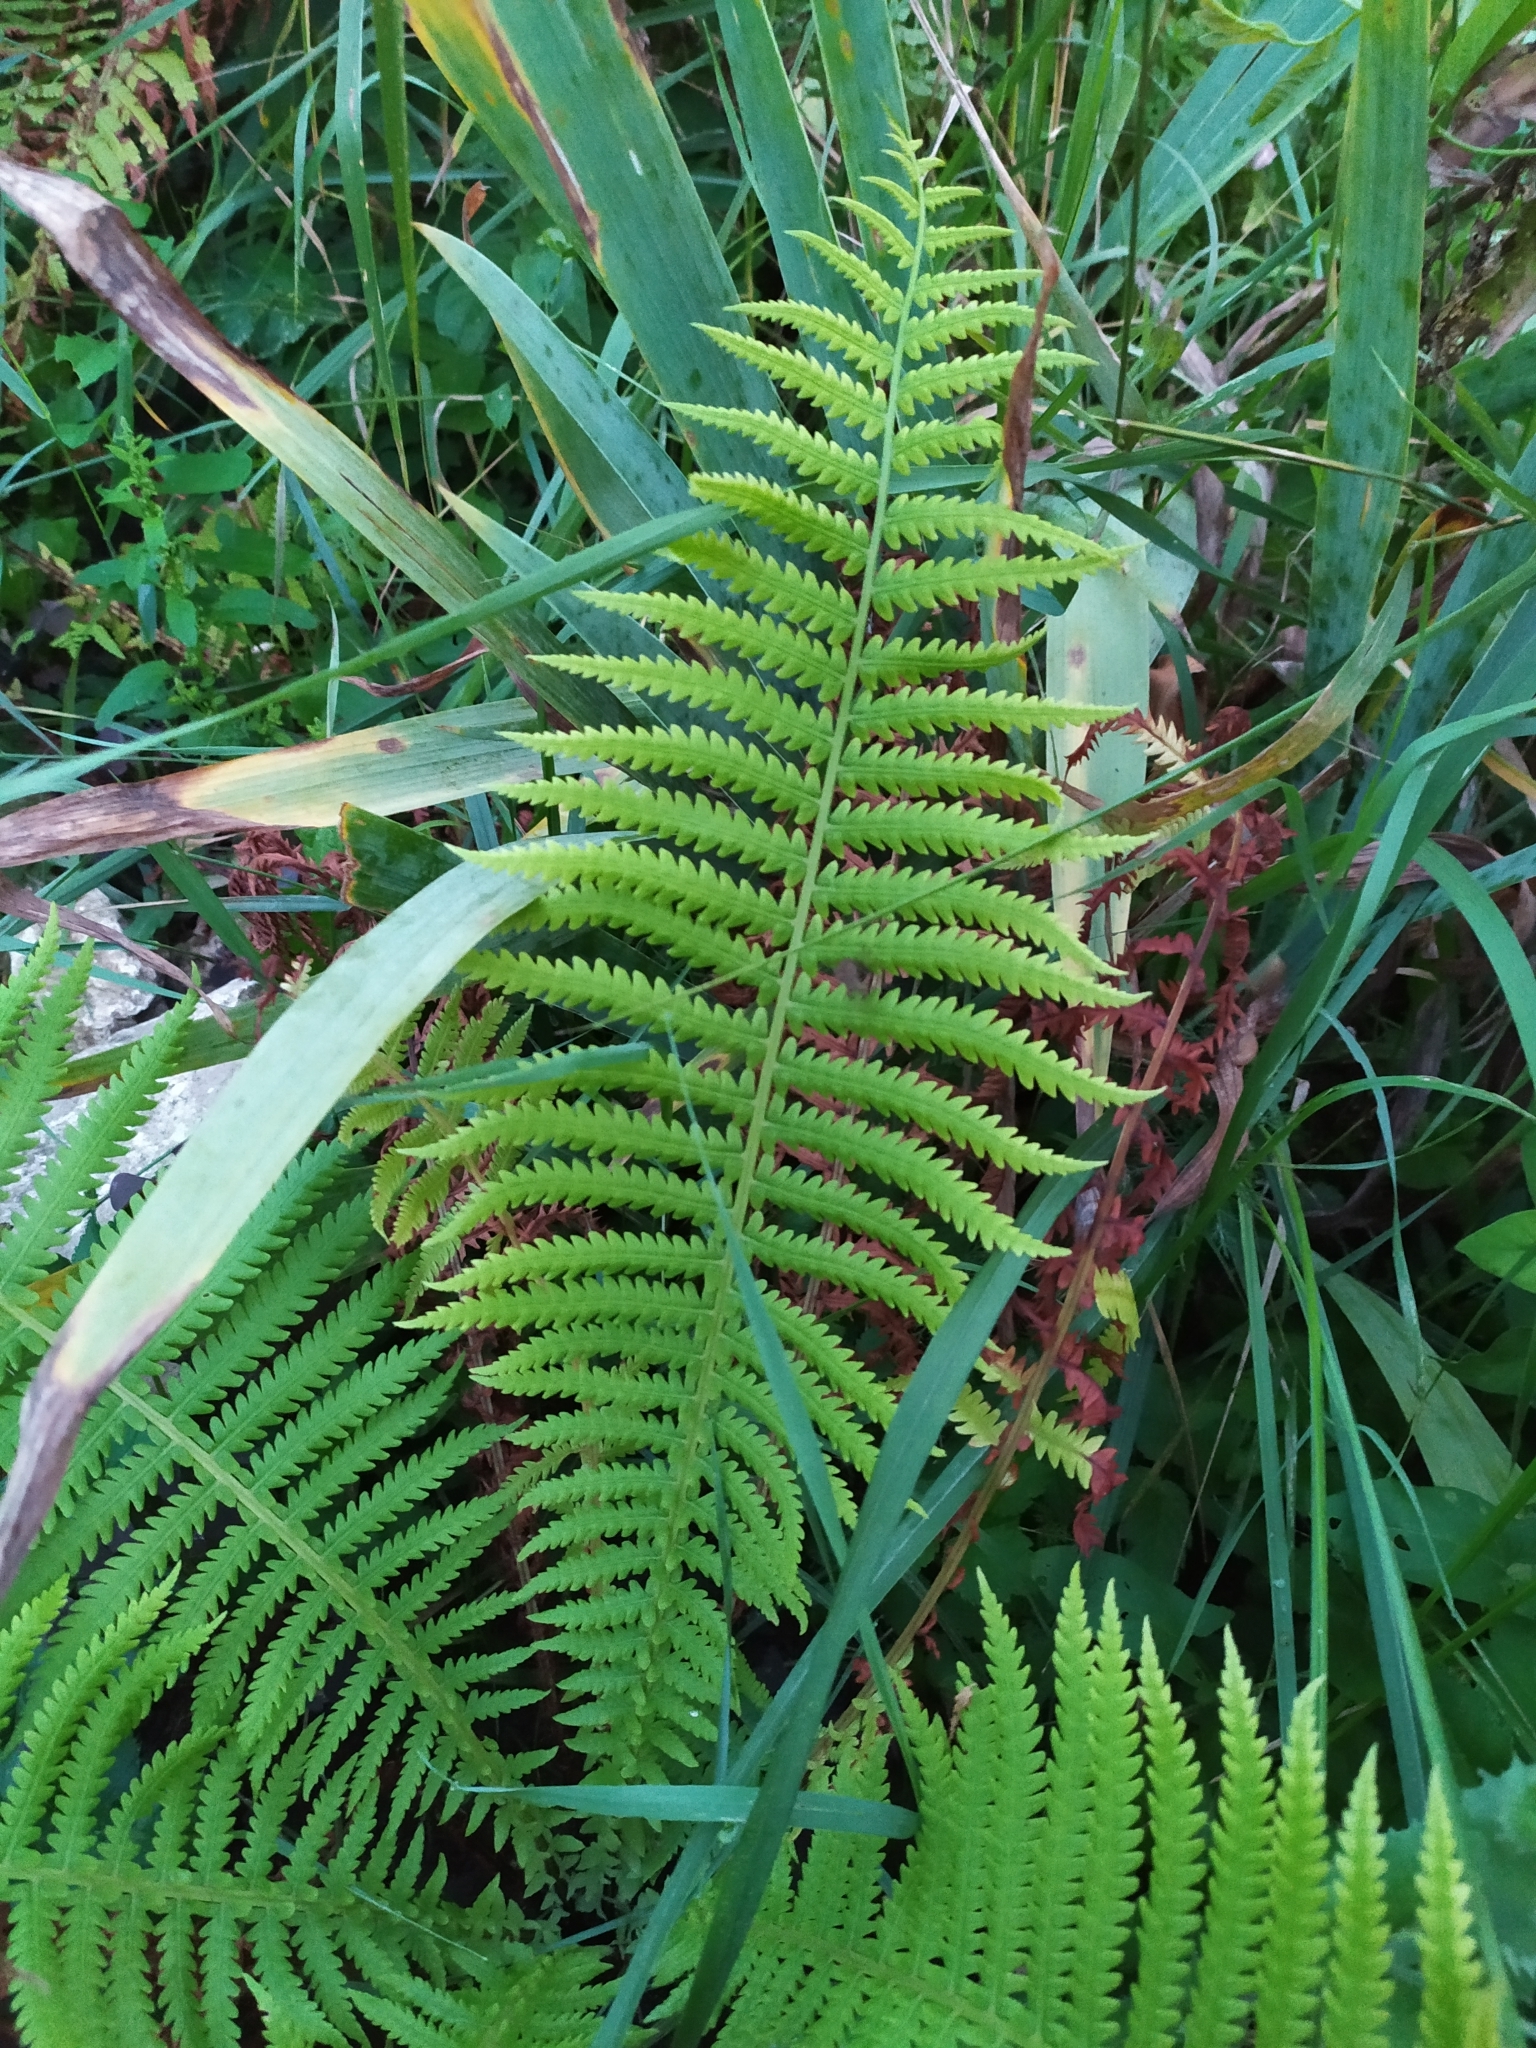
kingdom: Plantae
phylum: Tracheophyta
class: Polypodiopsida
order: Polypodiales
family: Onocleaceae
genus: Matteuccia
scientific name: Matteuccia struthiopteris
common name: Ostrich fern
